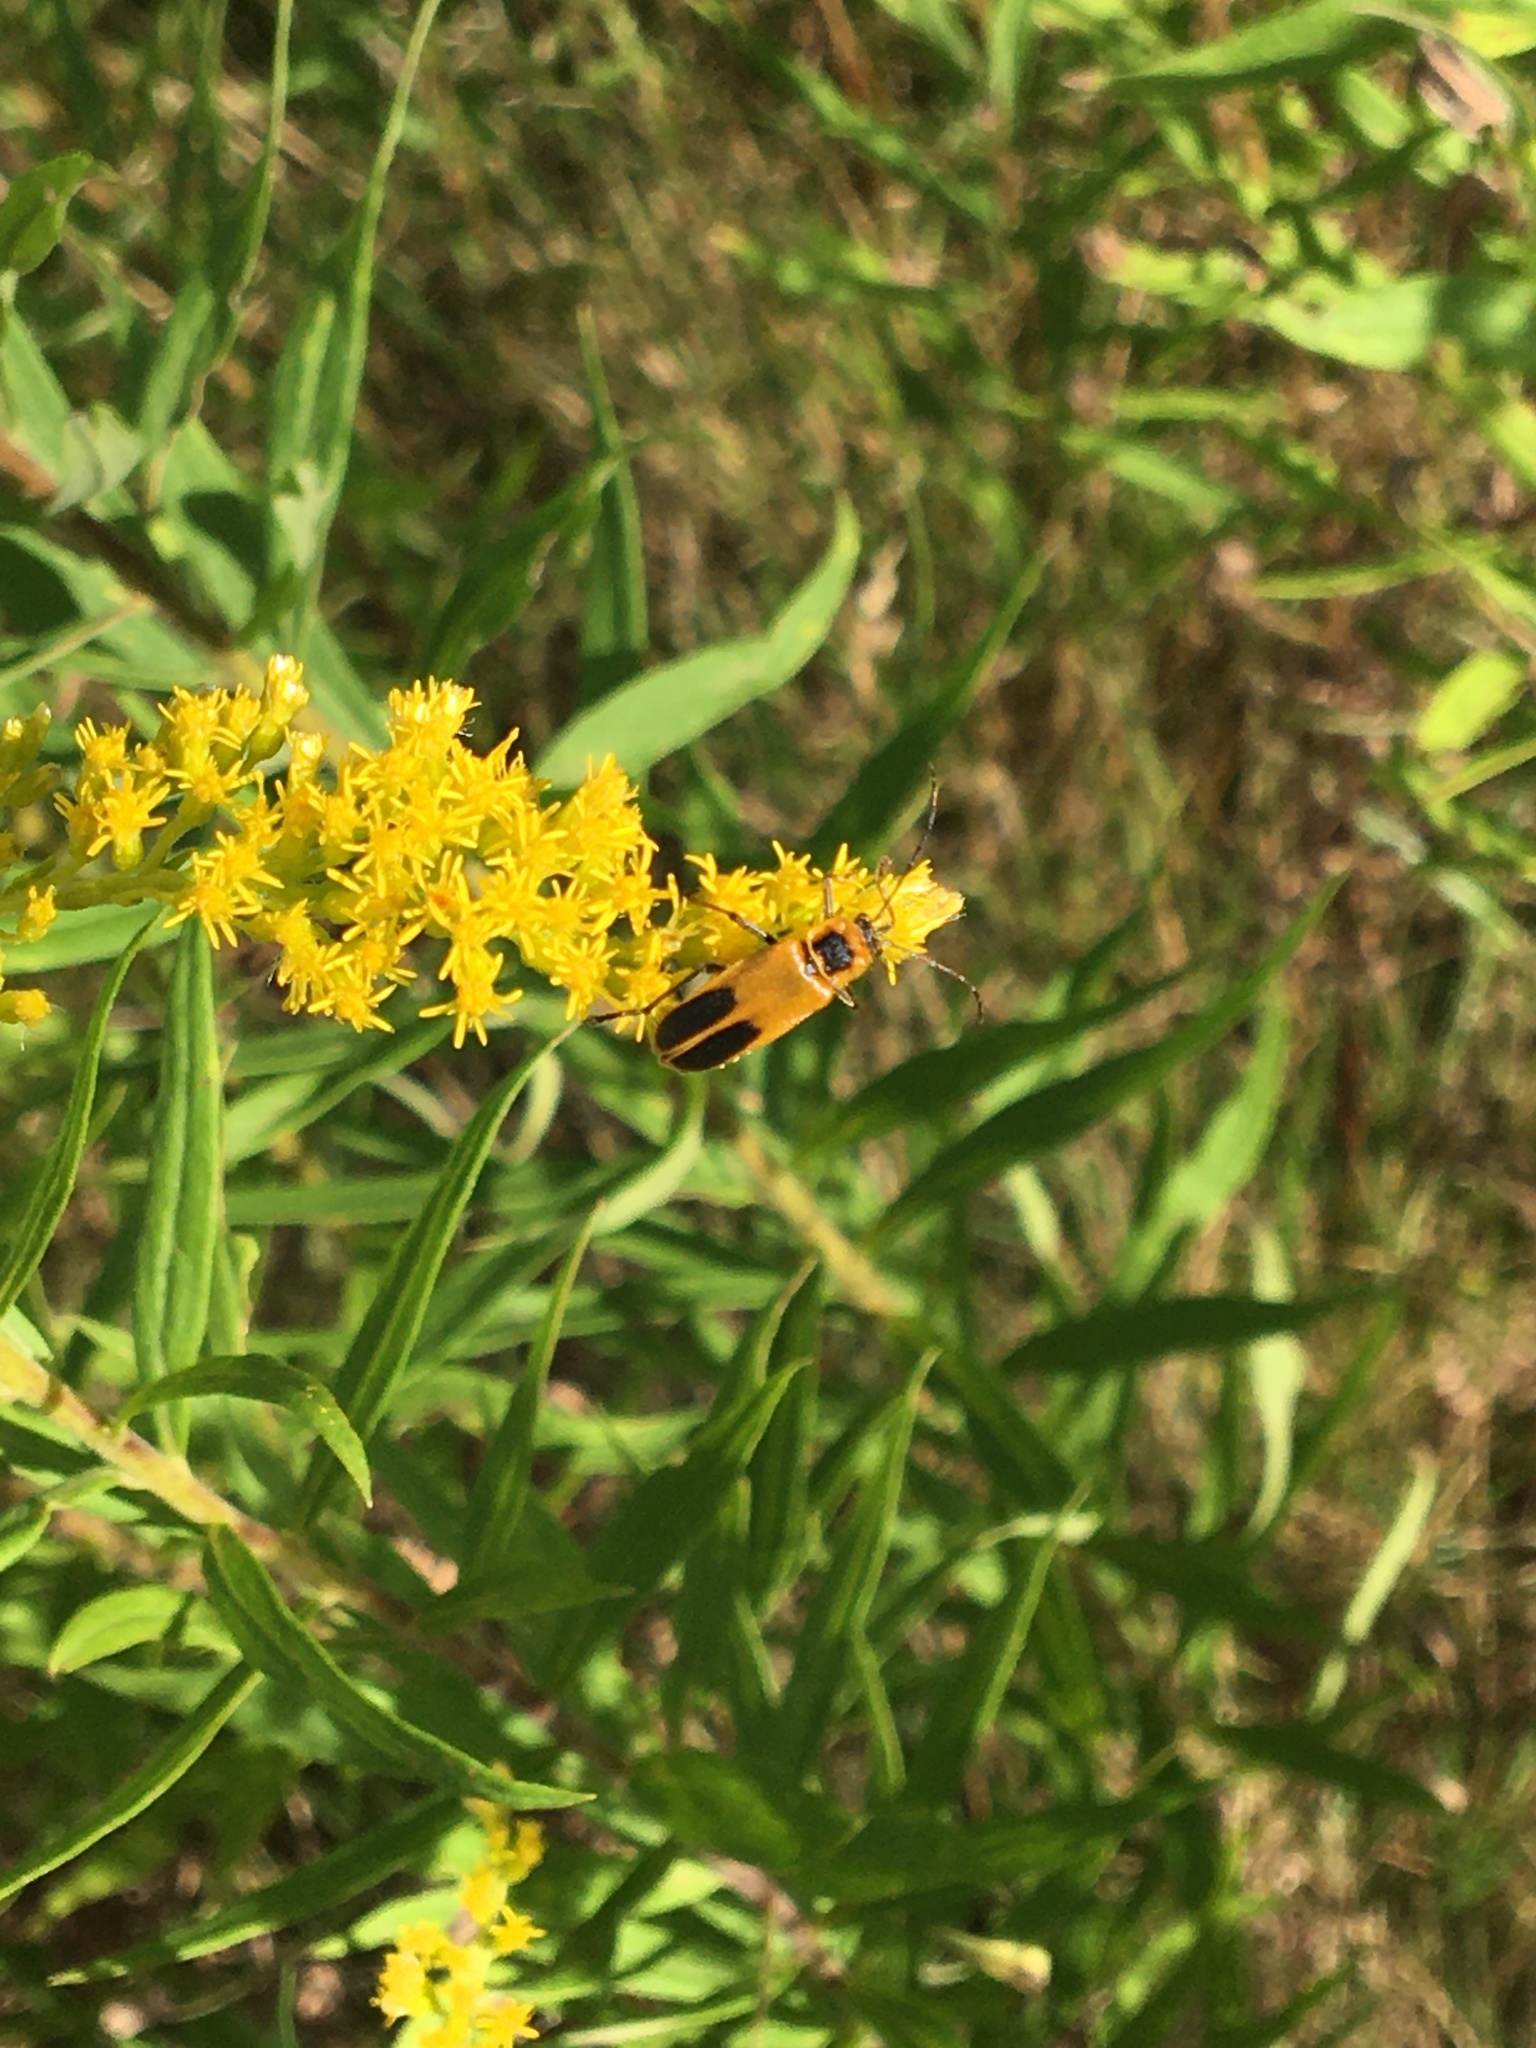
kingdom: Animalia
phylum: Arthropoda
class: Insecta
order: Coleoptera
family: Cantharidae
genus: Chauliognathus
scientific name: Chauliognathus pensylvanicus
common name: Goldenrod soldier beetle
